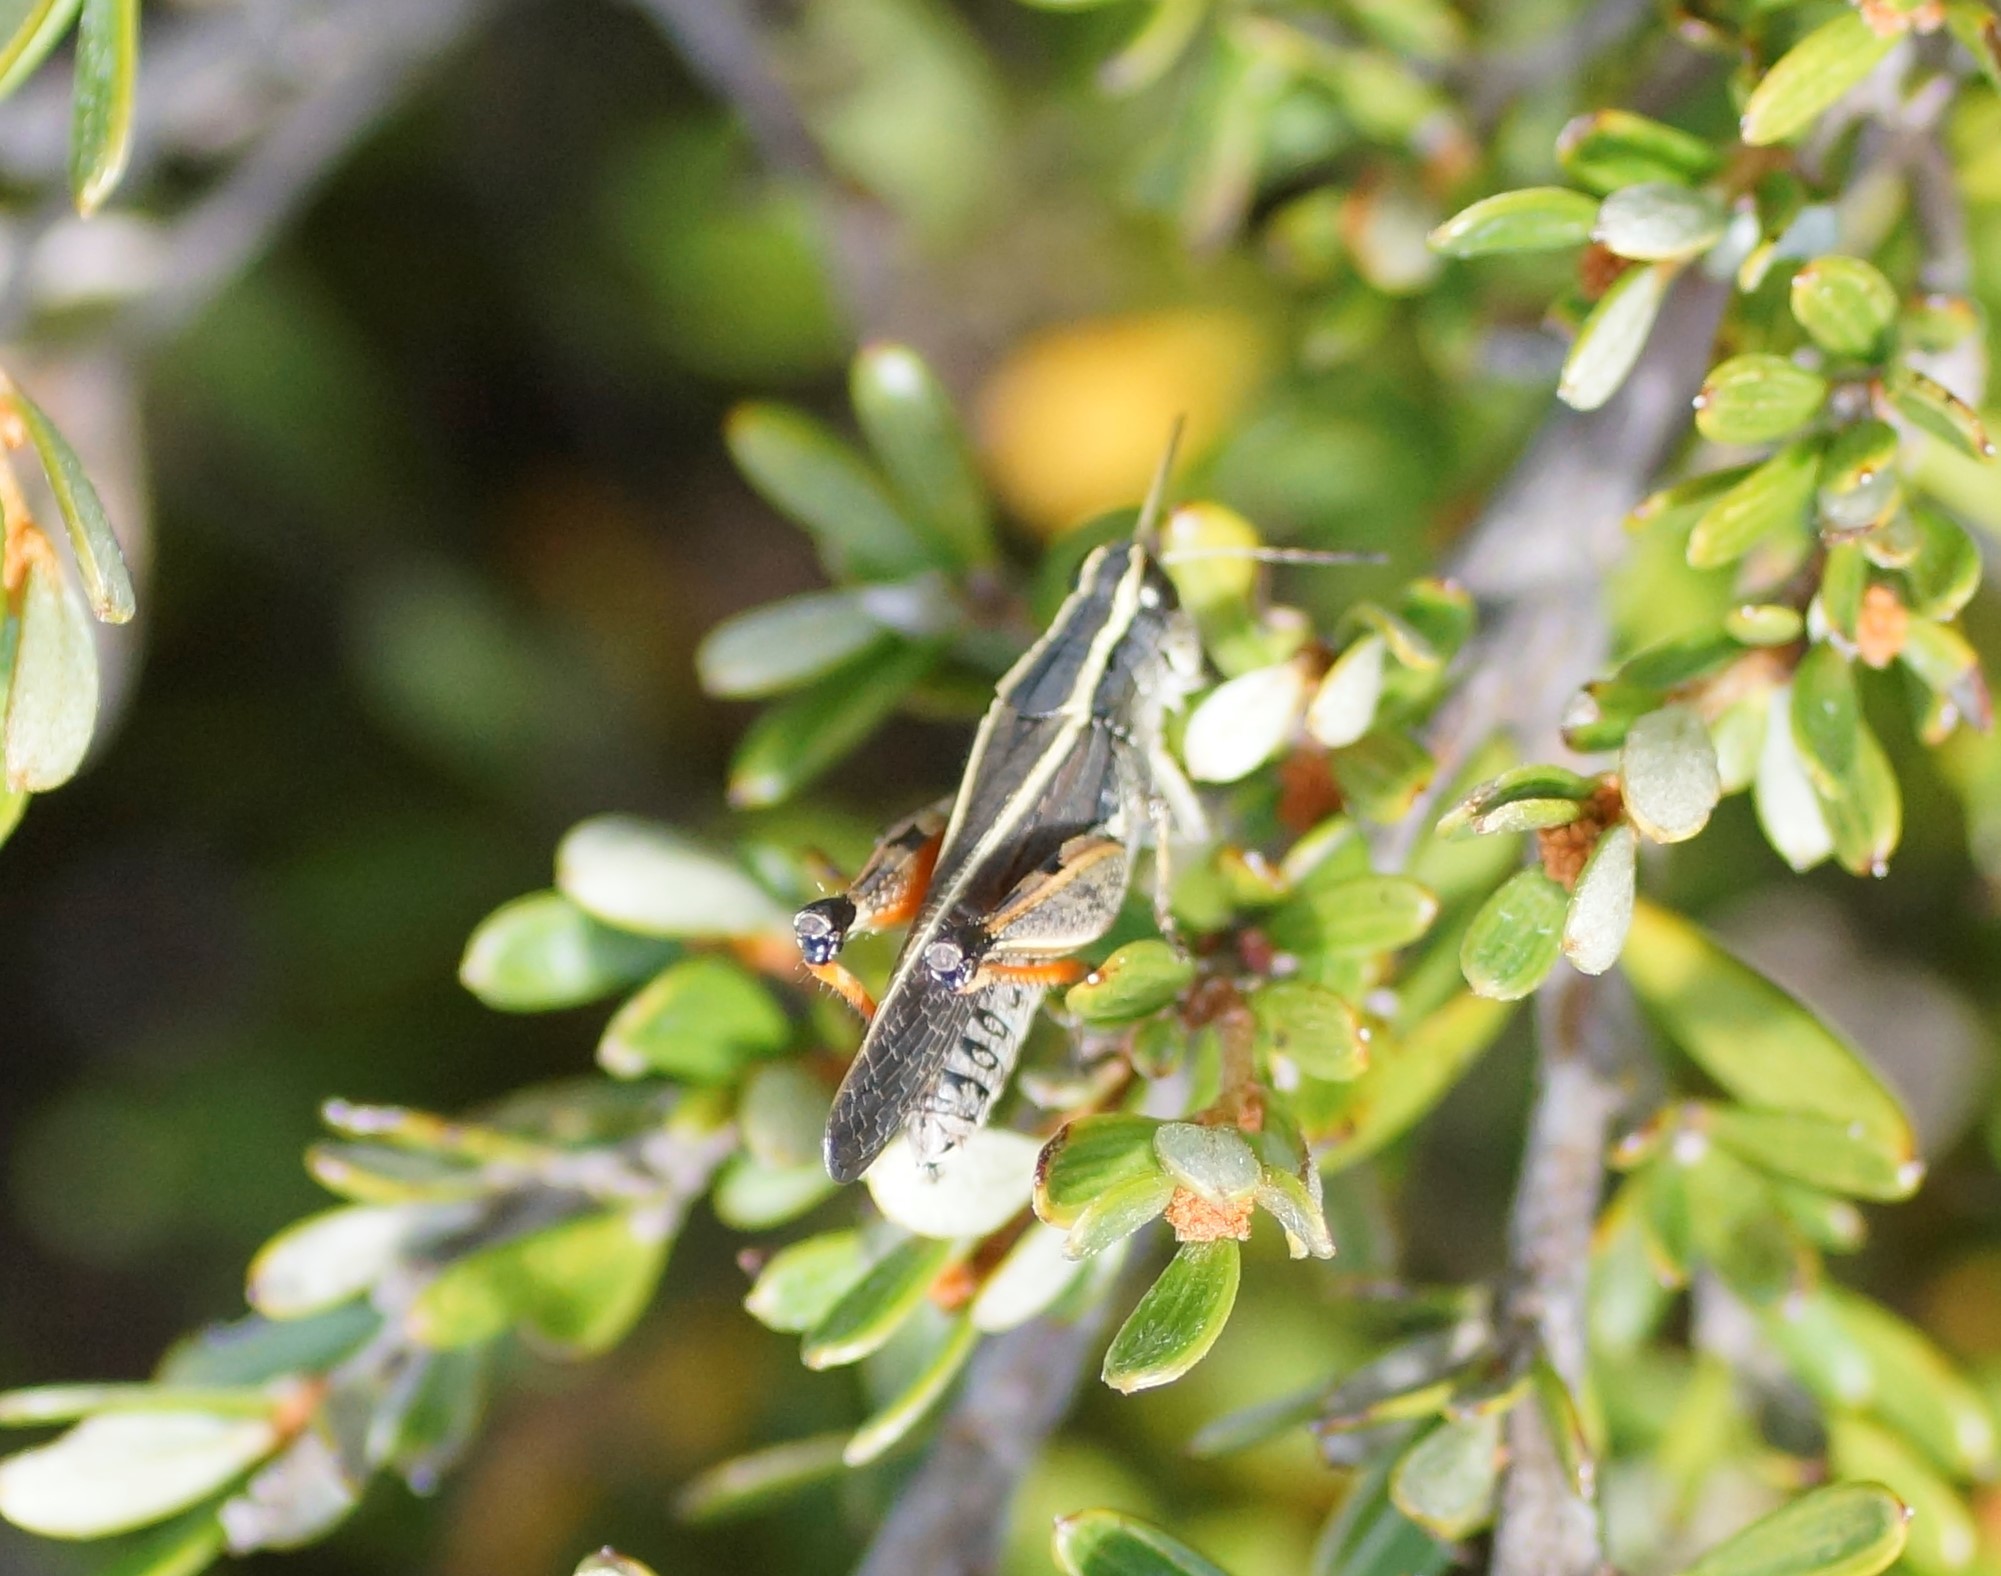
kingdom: Animalia
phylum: Arthropoda
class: Insecta
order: Orthoptera
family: Acrididae
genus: Phaulacridium
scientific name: Phaulacridium vittatum
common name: Wingless grasshopper
